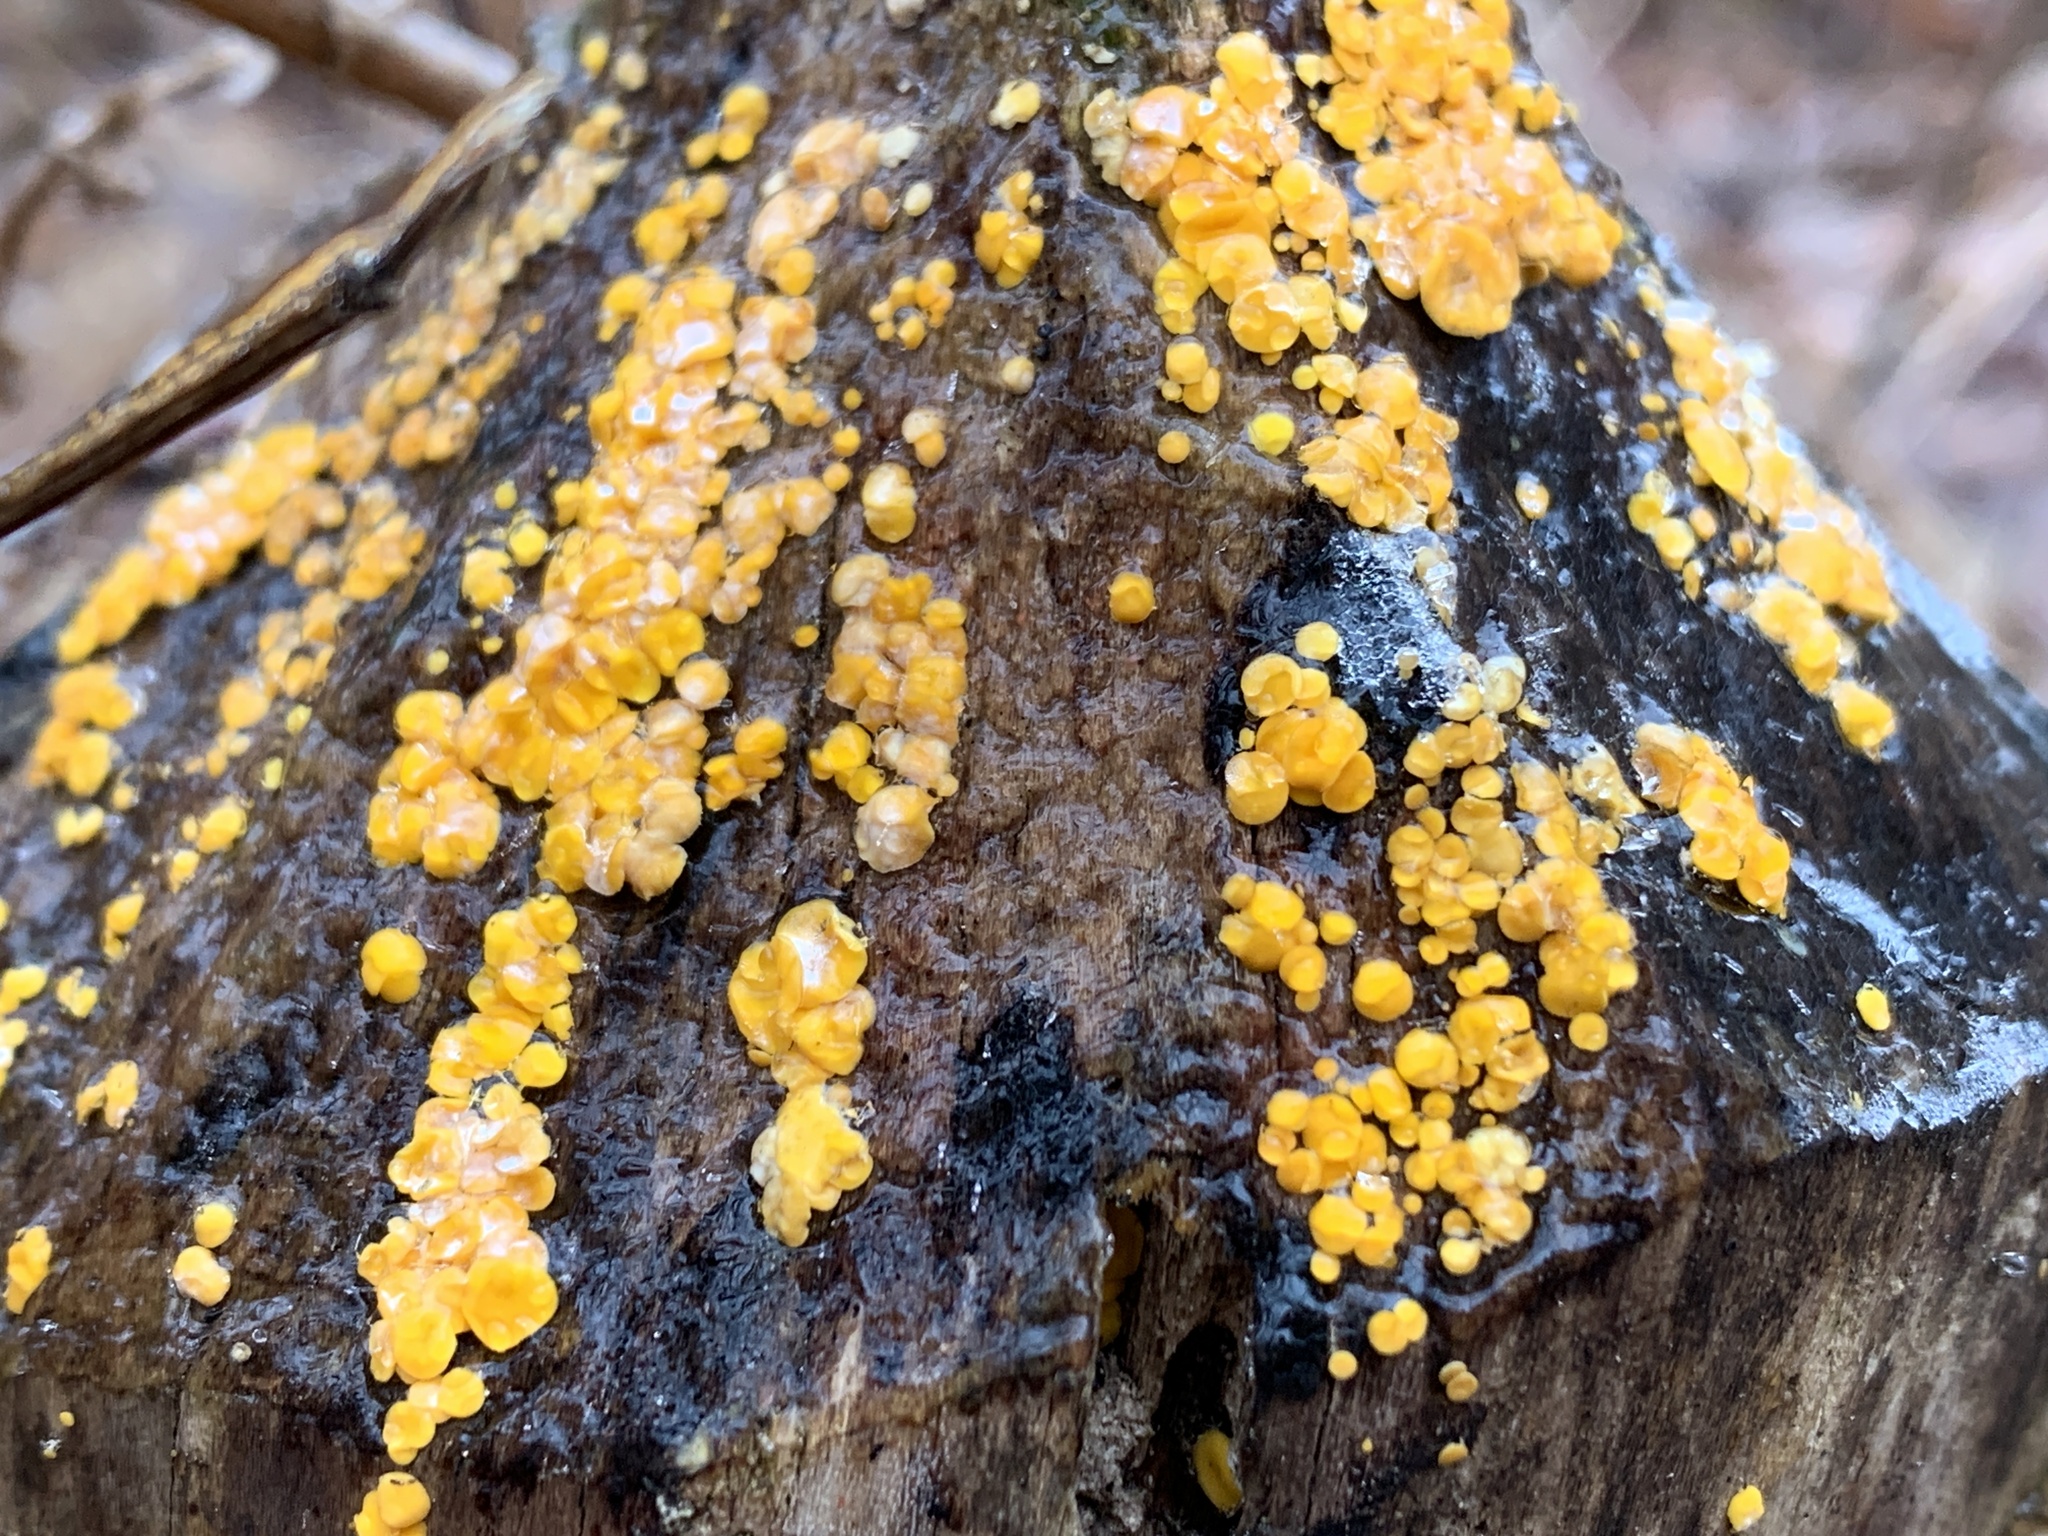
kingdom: Fungi
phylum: Ascomycota
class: Leotiomycetes
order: Helotiales
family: Pezizellaceae
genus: Calycina
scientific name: Calycina citrina
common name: Yellow fairy cups
